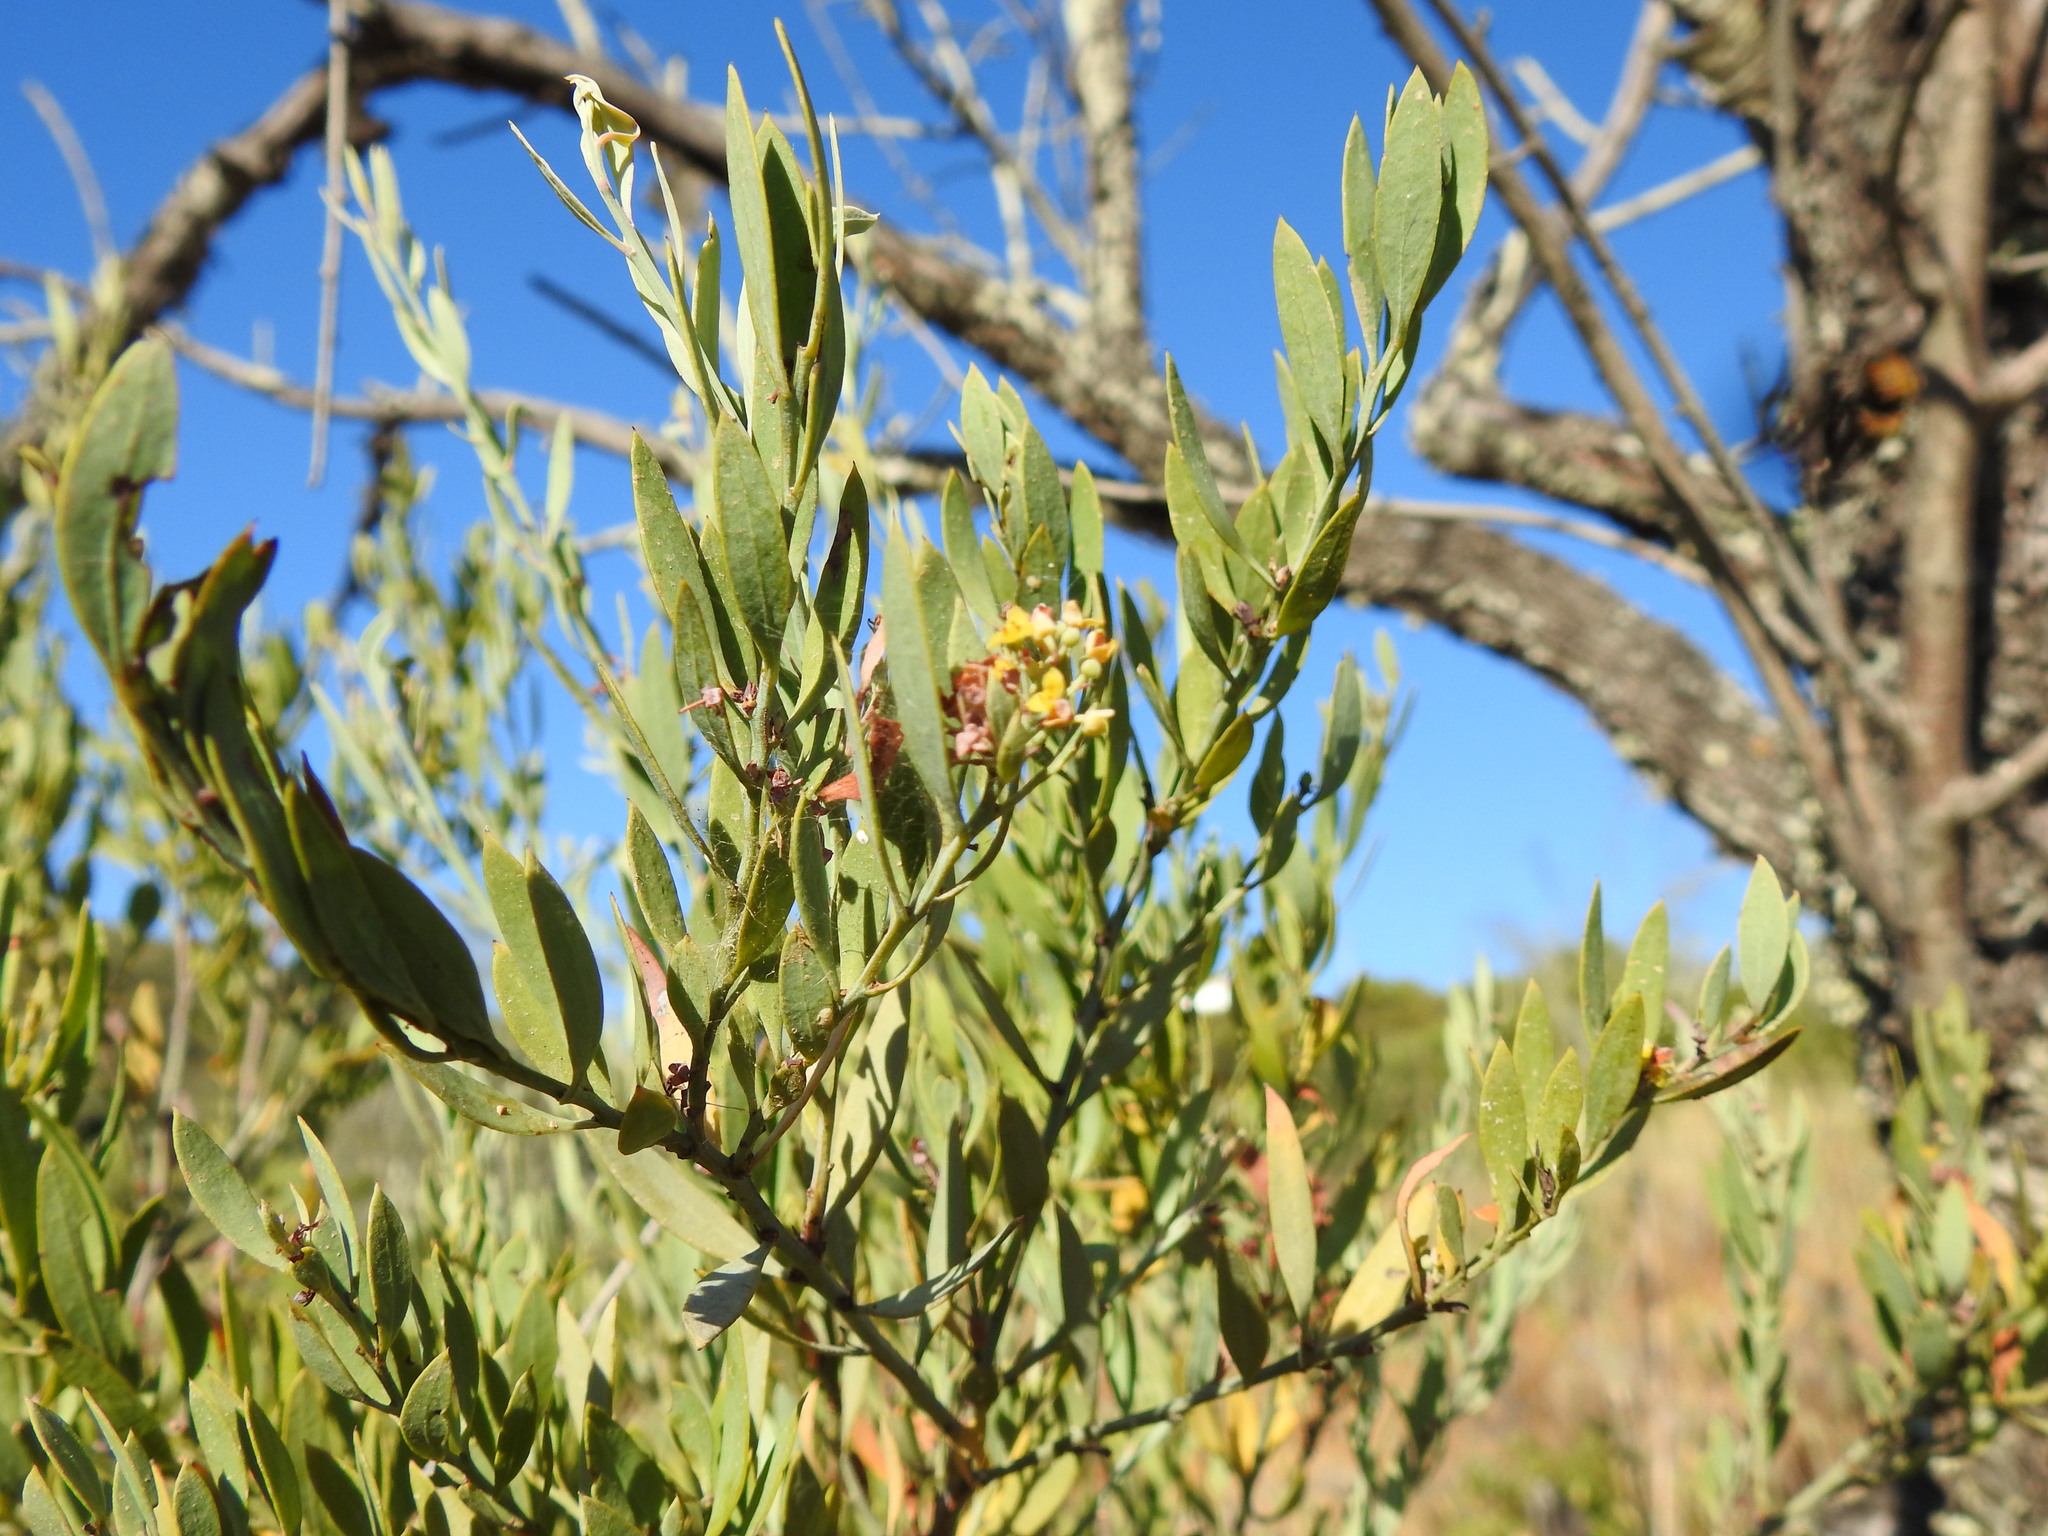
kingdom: Plantae
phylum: Tracheophyta
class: Magnoliopsida
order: Santalales
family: Santalaceae
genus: Osyris
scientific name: Osyris lanceolata
